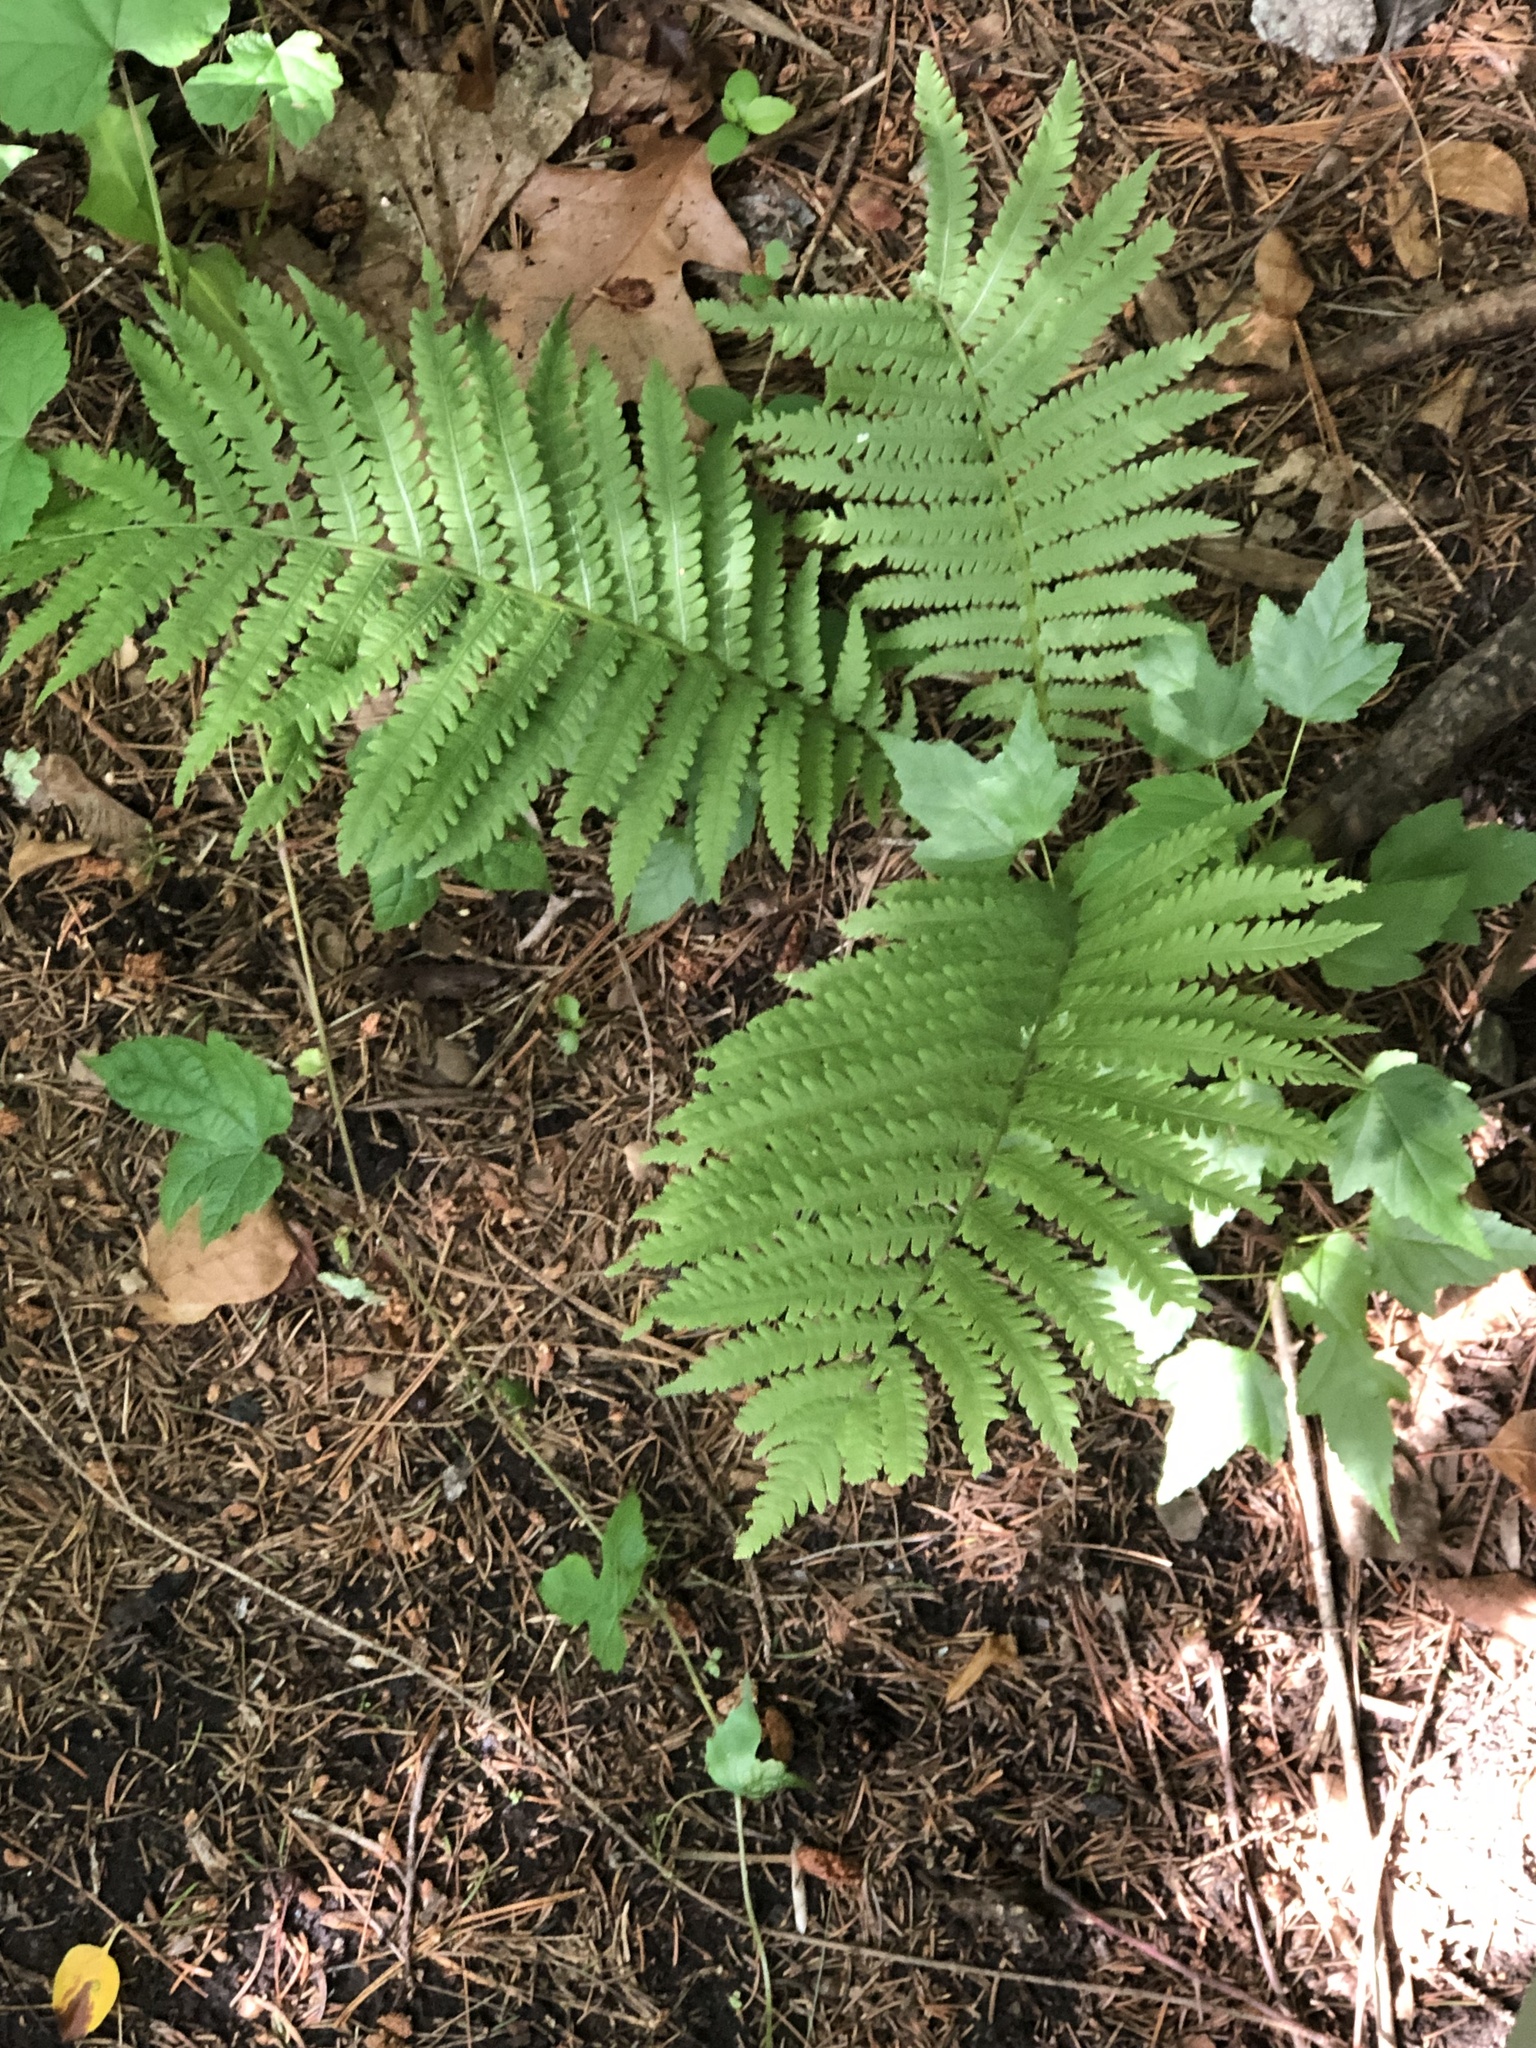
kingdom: Plantae
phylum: Tracheophyta
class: Polypodiopsida
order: Polypodiales
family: Onocleaceae
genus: Matteuccia
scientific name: Matteuccia struthiopteris
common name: Ostrich fern
